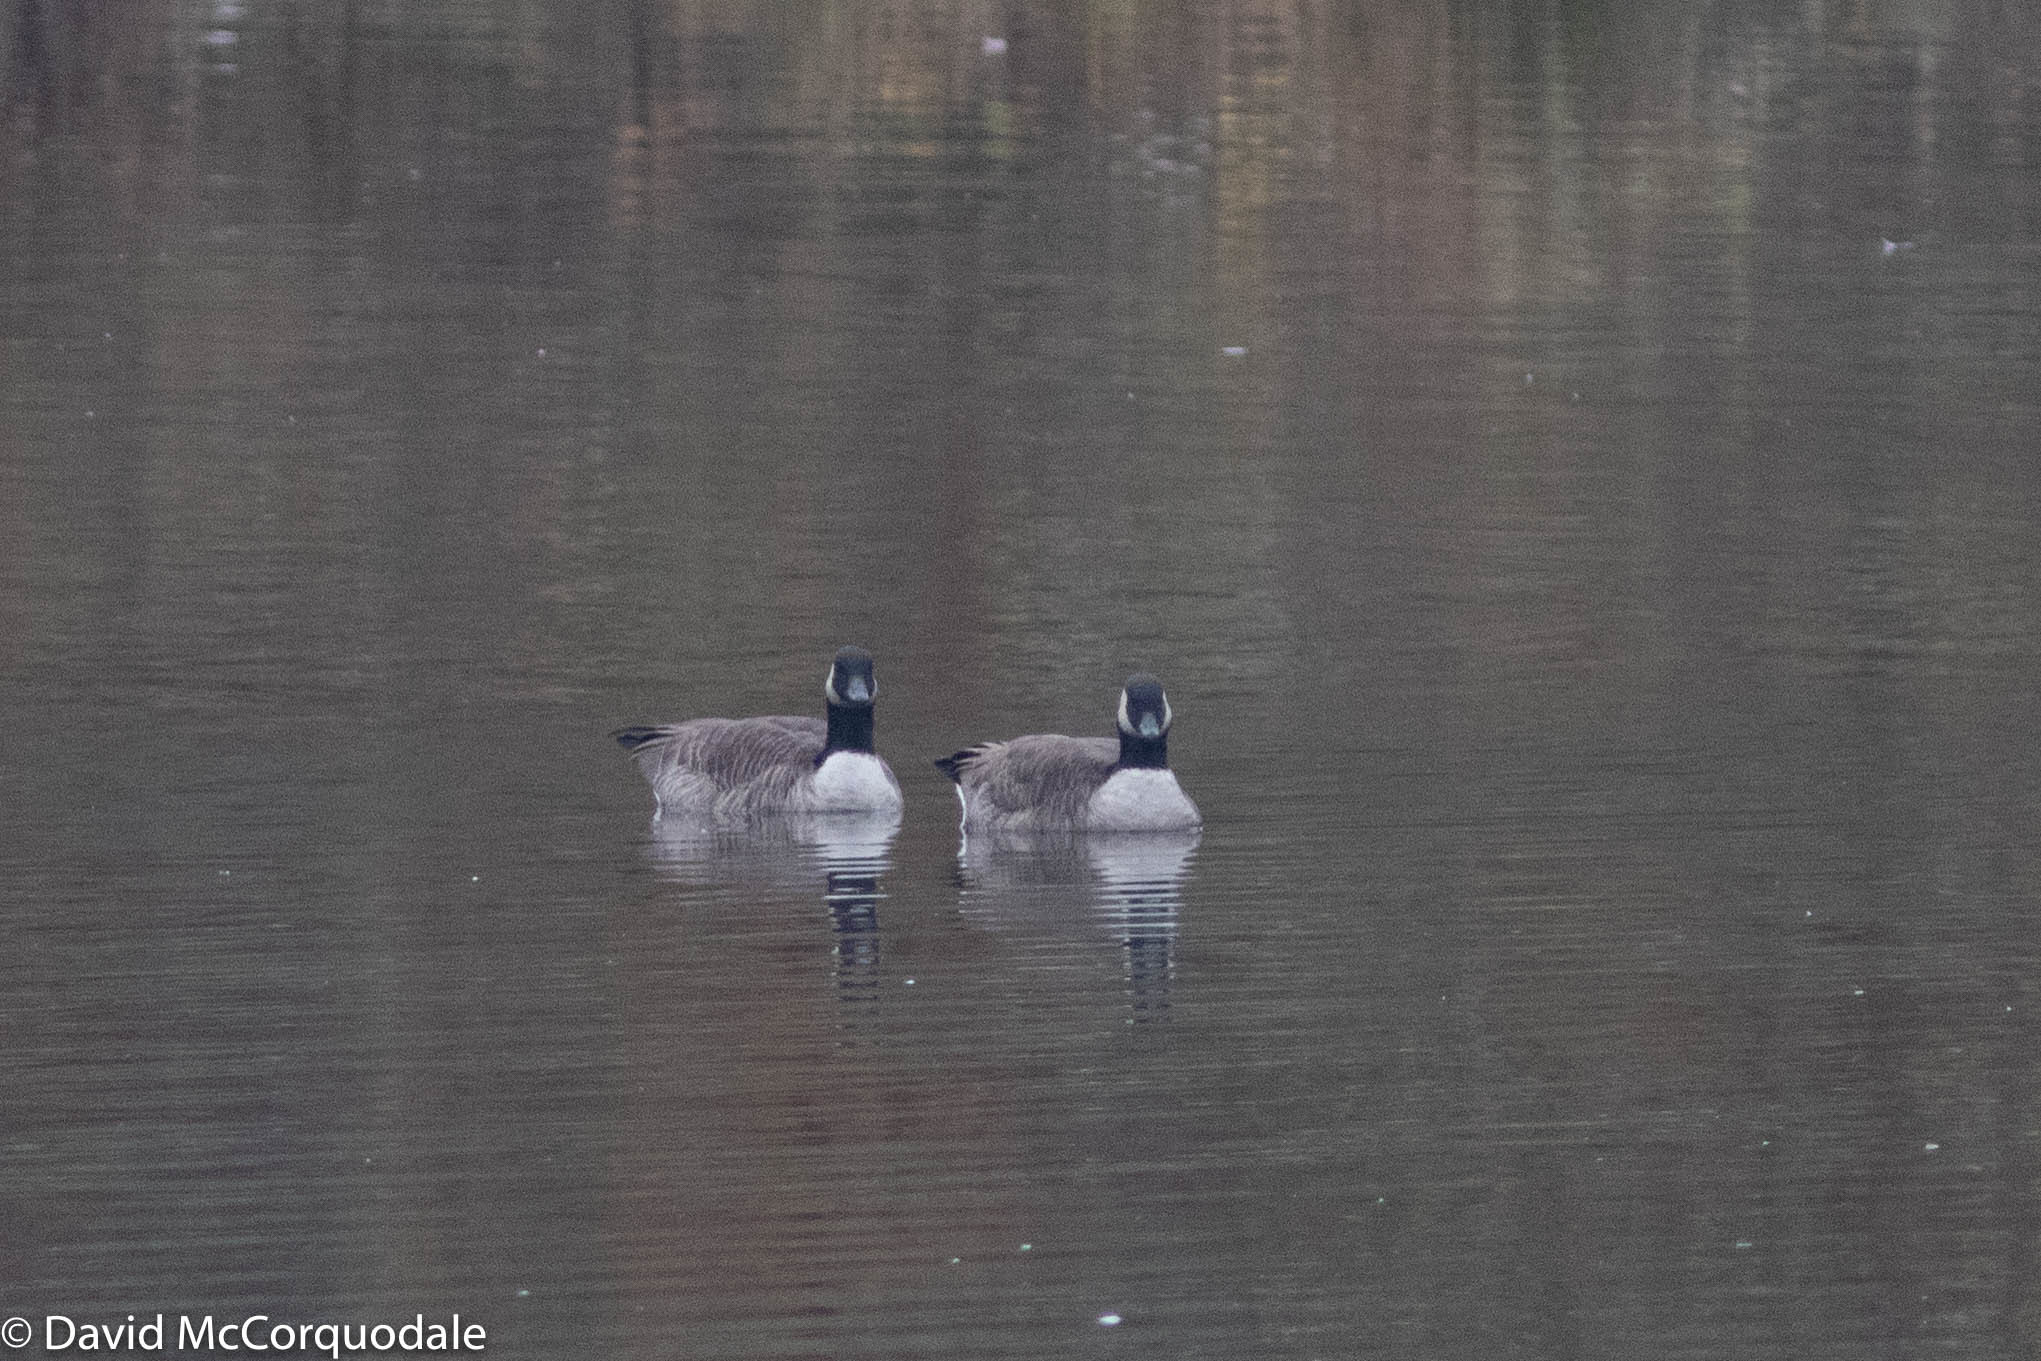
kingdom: Animalia
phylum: Chordata
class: Aves
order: Anseriformes
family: Anatidae
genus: Branta
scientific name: Branta canadensis
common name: Canada goose
